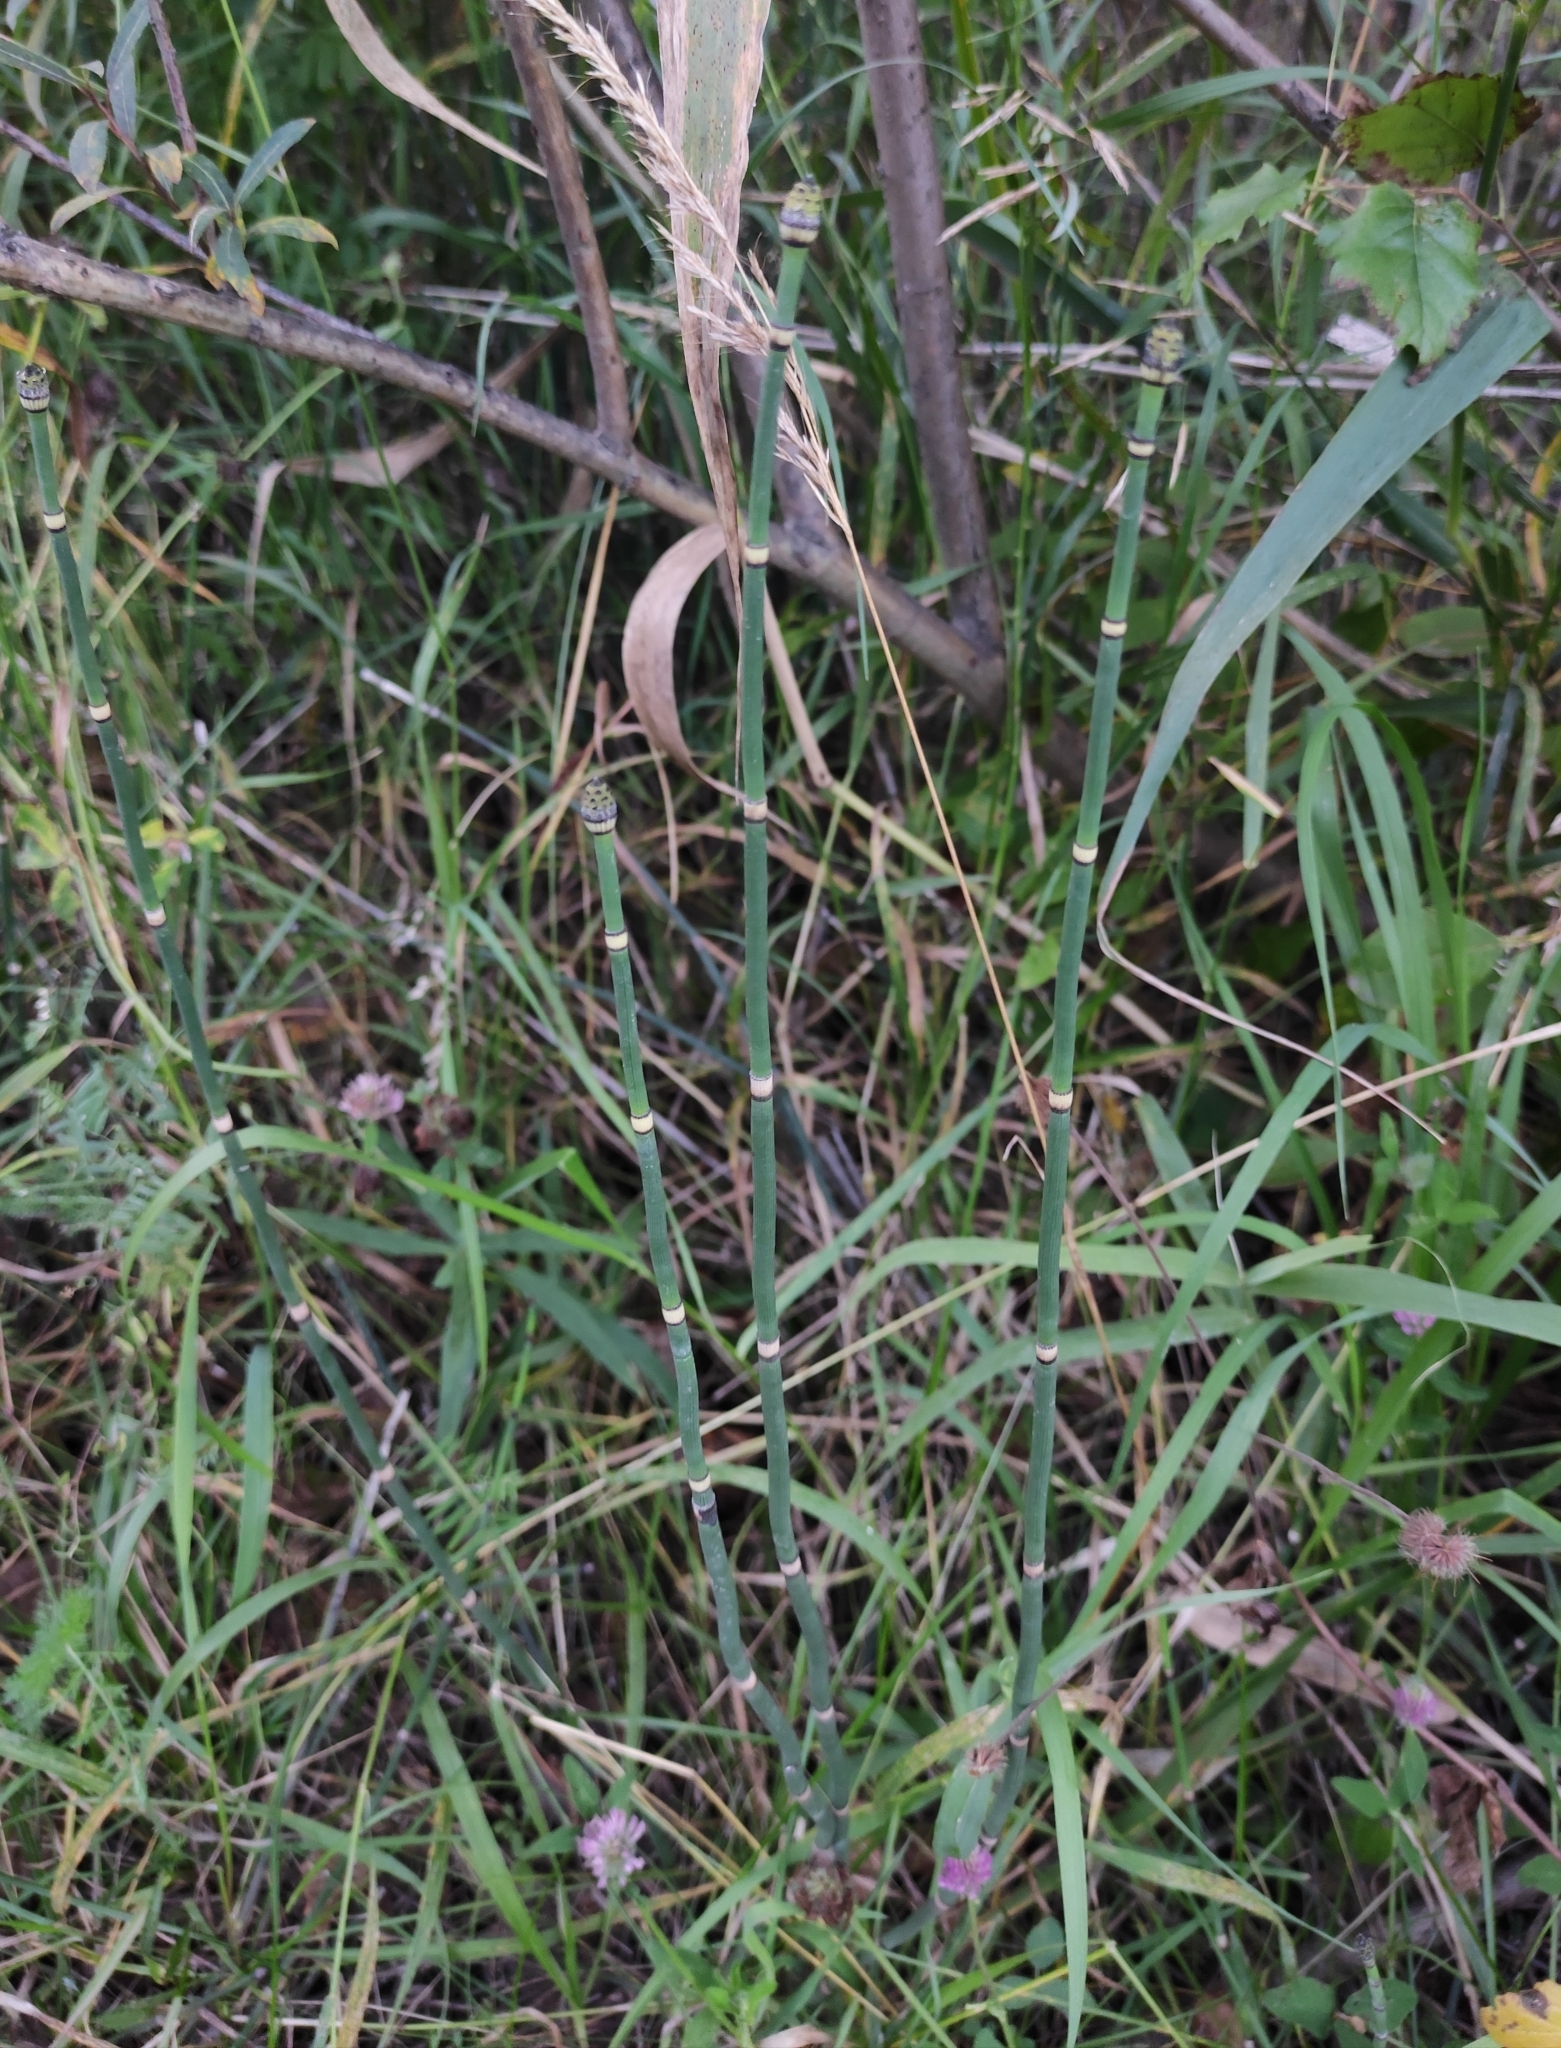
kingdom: Plantae
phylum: Tracheophyta
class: Polypodiopsida
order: Equisetales
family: Equisetaceae
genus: Equisetum
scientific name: Equisetum hyemale
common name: Rough horsetail
